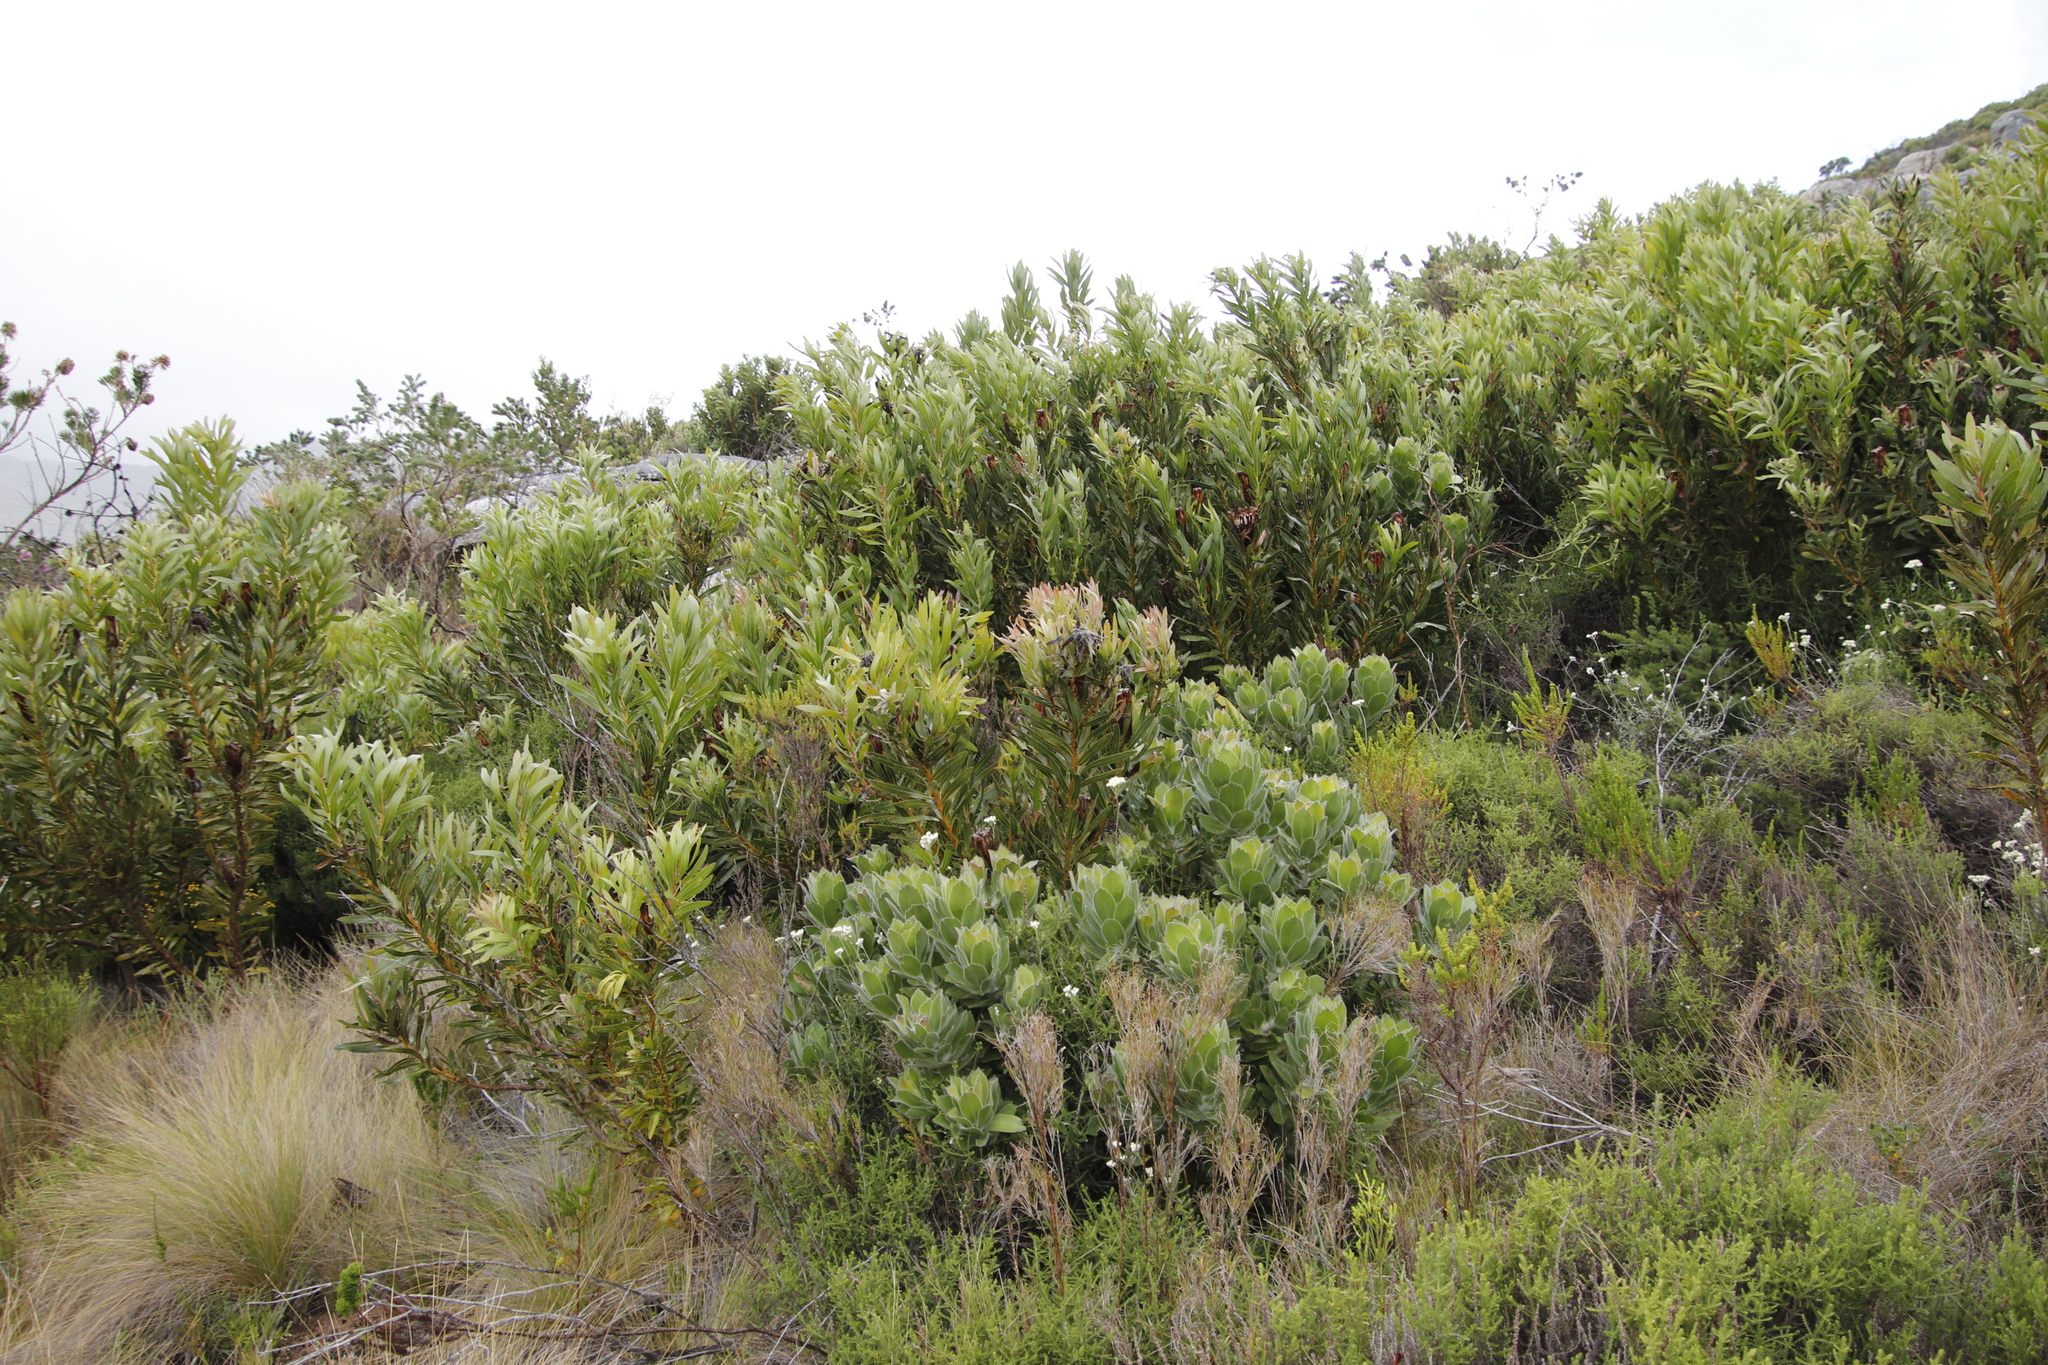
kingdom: Plantae
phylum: Tracheophyta
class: Magnoliopsida
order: Proteales
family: Proteaceae
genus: Protea
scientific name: Protea lepidocarpodendron
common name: Black-bearded protea
